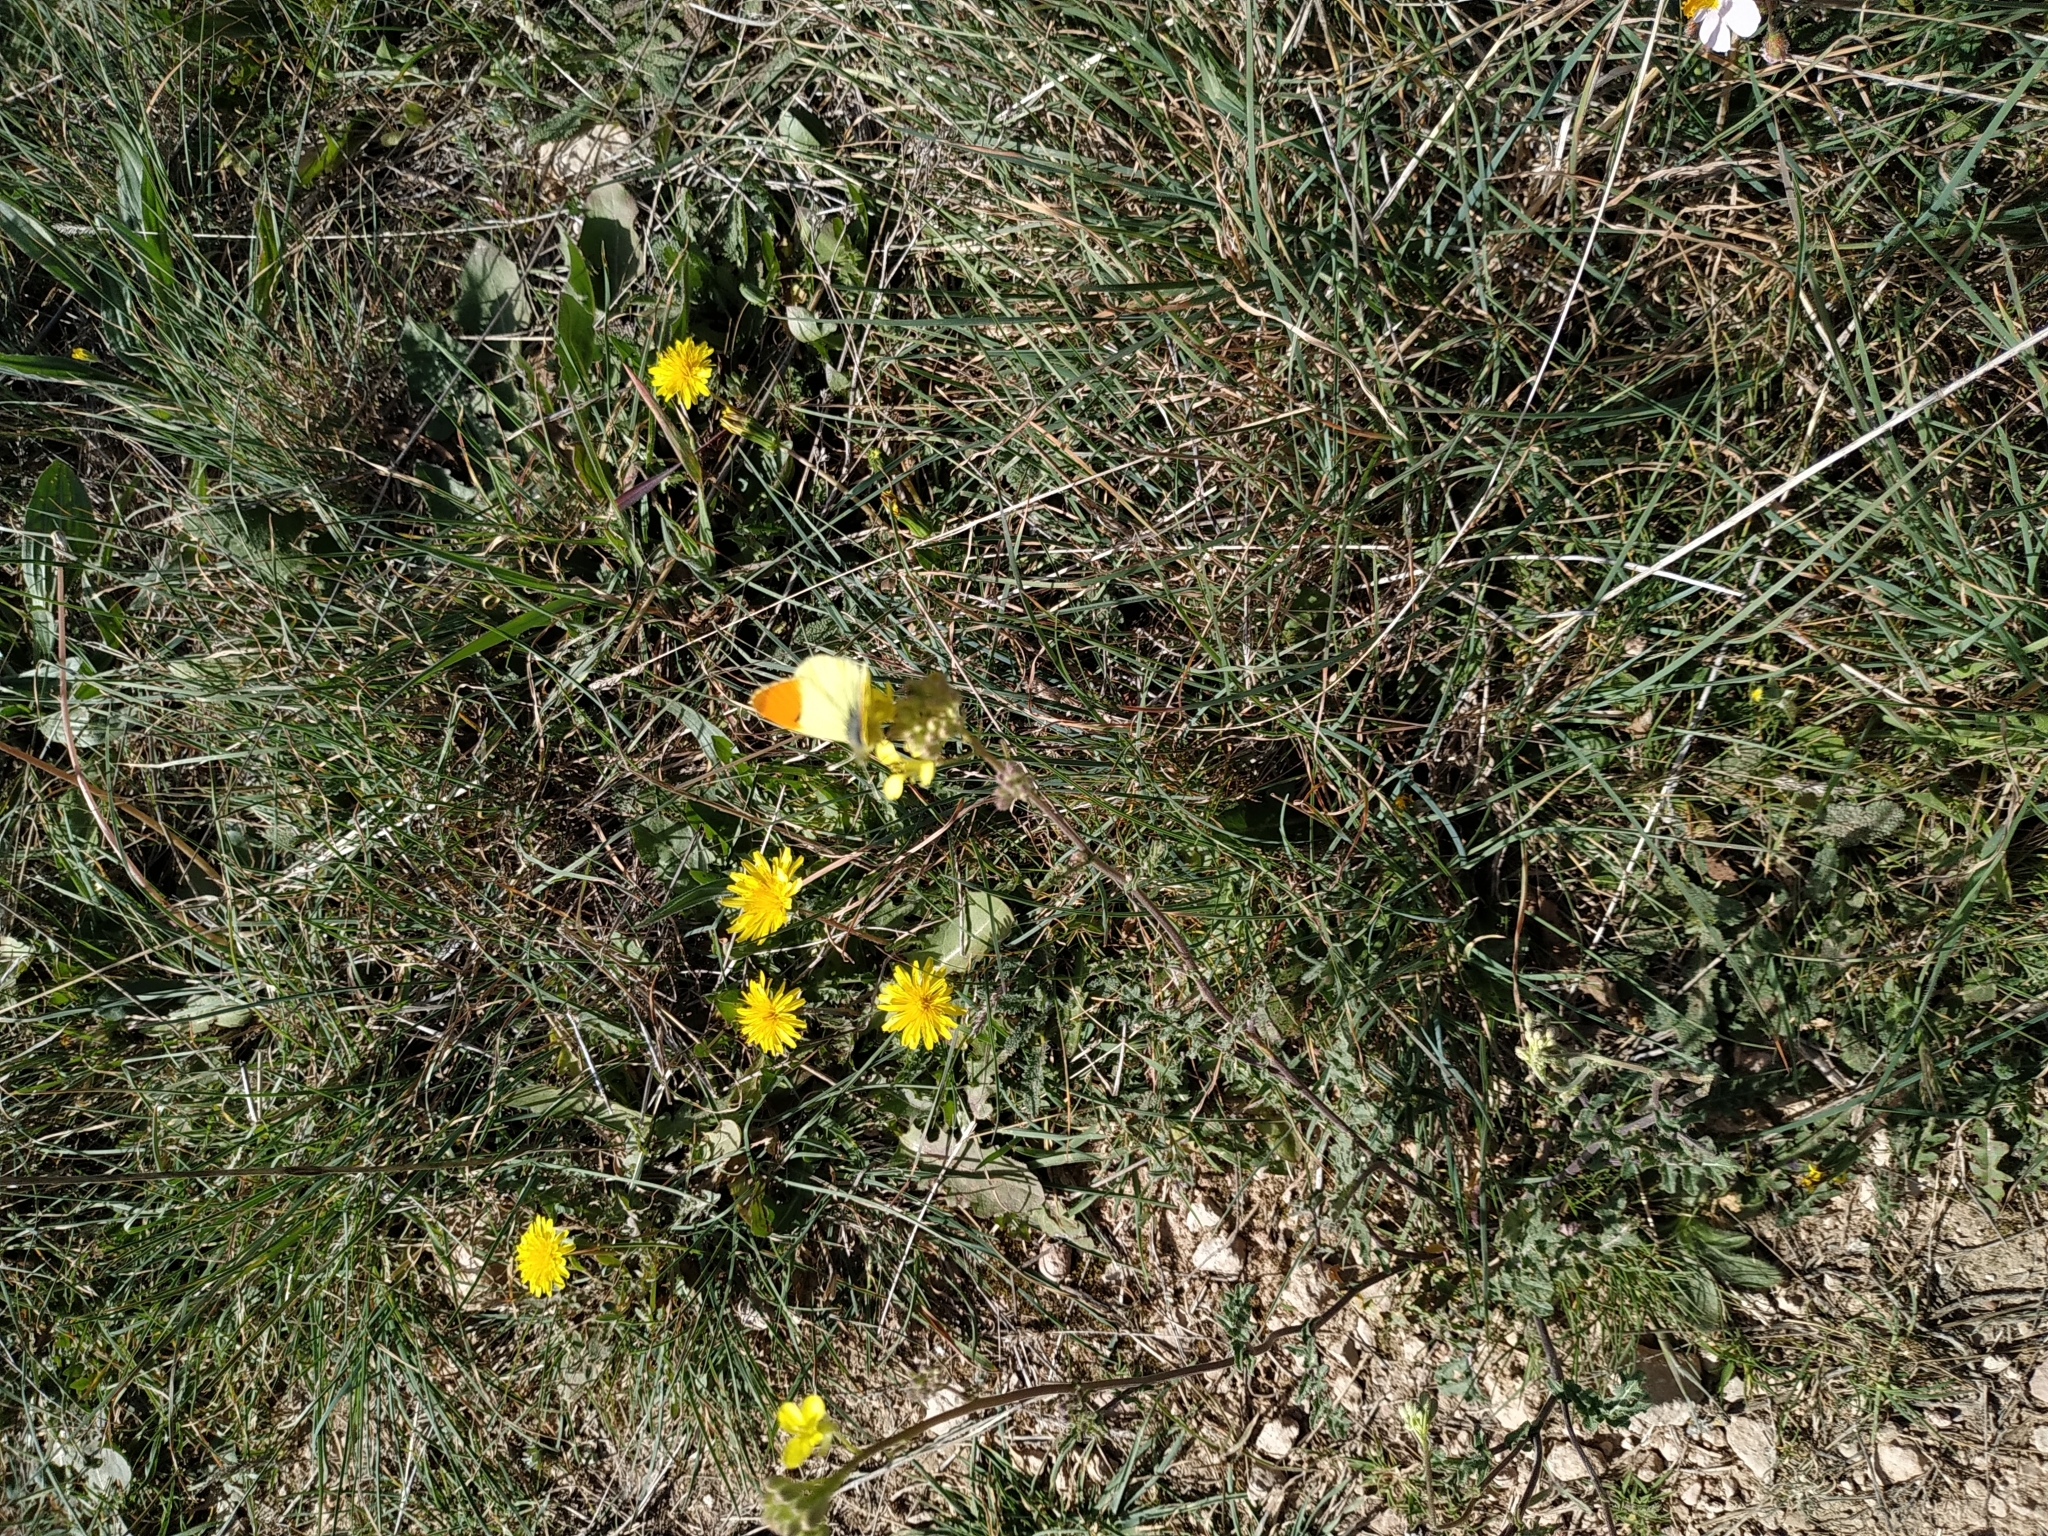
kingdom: Animalia
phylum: Arthropoda
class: Insecta
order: Lepidoptera
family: Pieridae
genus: Anthocharis
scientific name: Anthocharis euphenoides
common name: Provence orange-tip
